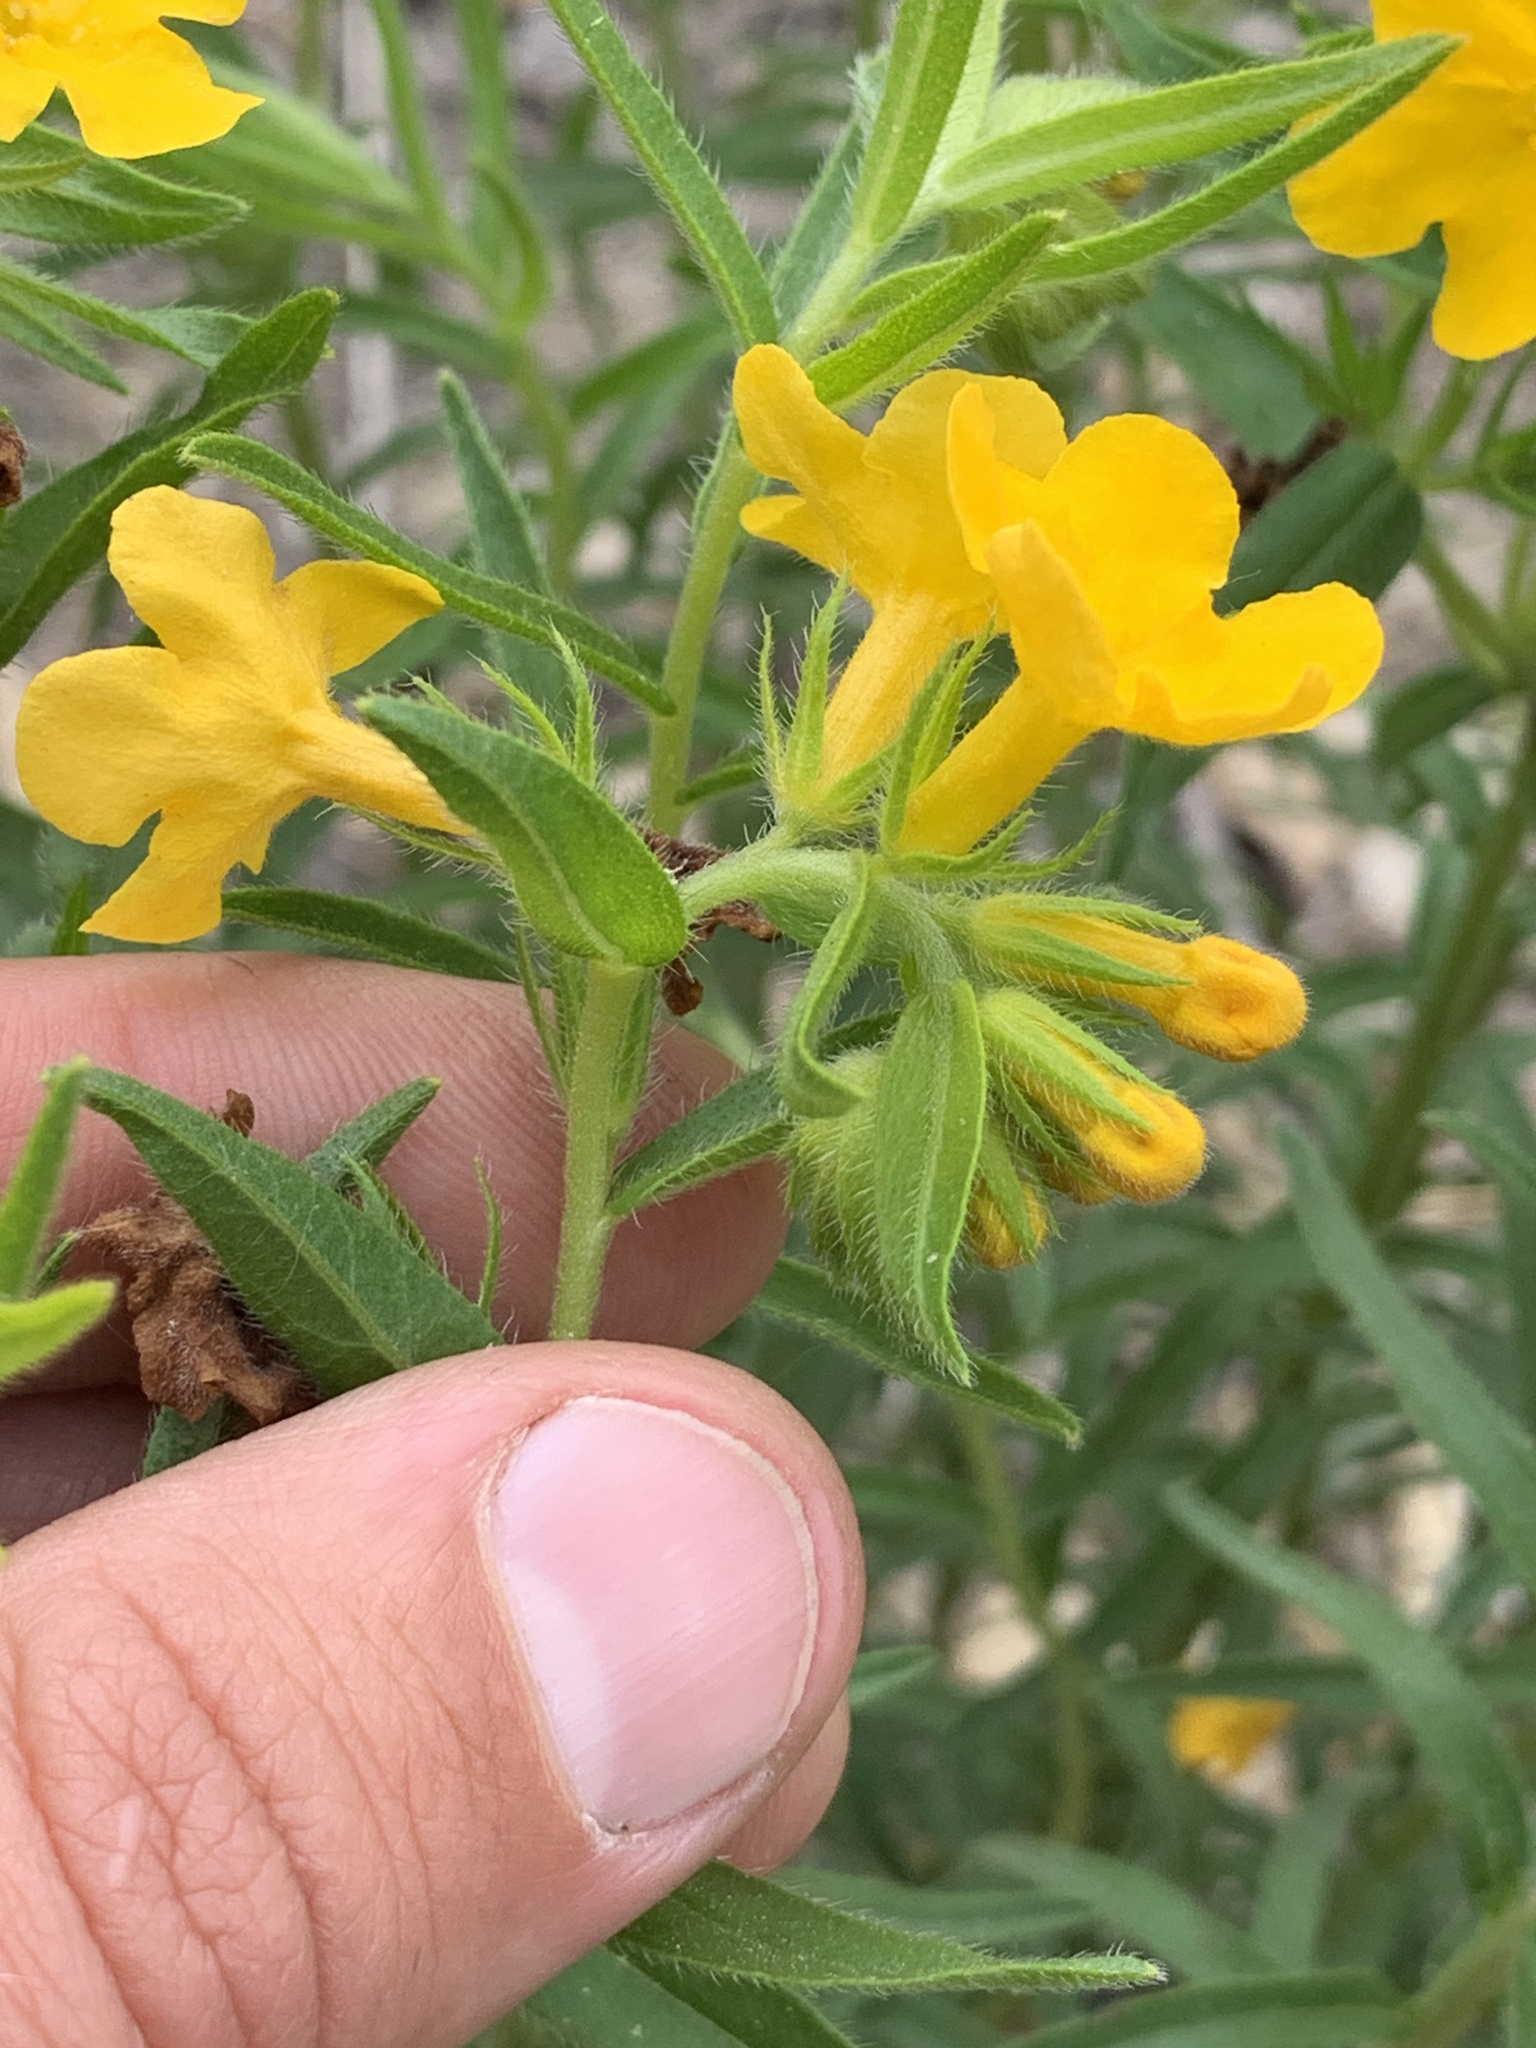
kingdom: Plantae
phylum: Tracheophyta
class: Magnoliopsida
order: Boraginales
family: Boraginaceae
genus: Lithospermum
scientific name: Lithospermum caroliniense
